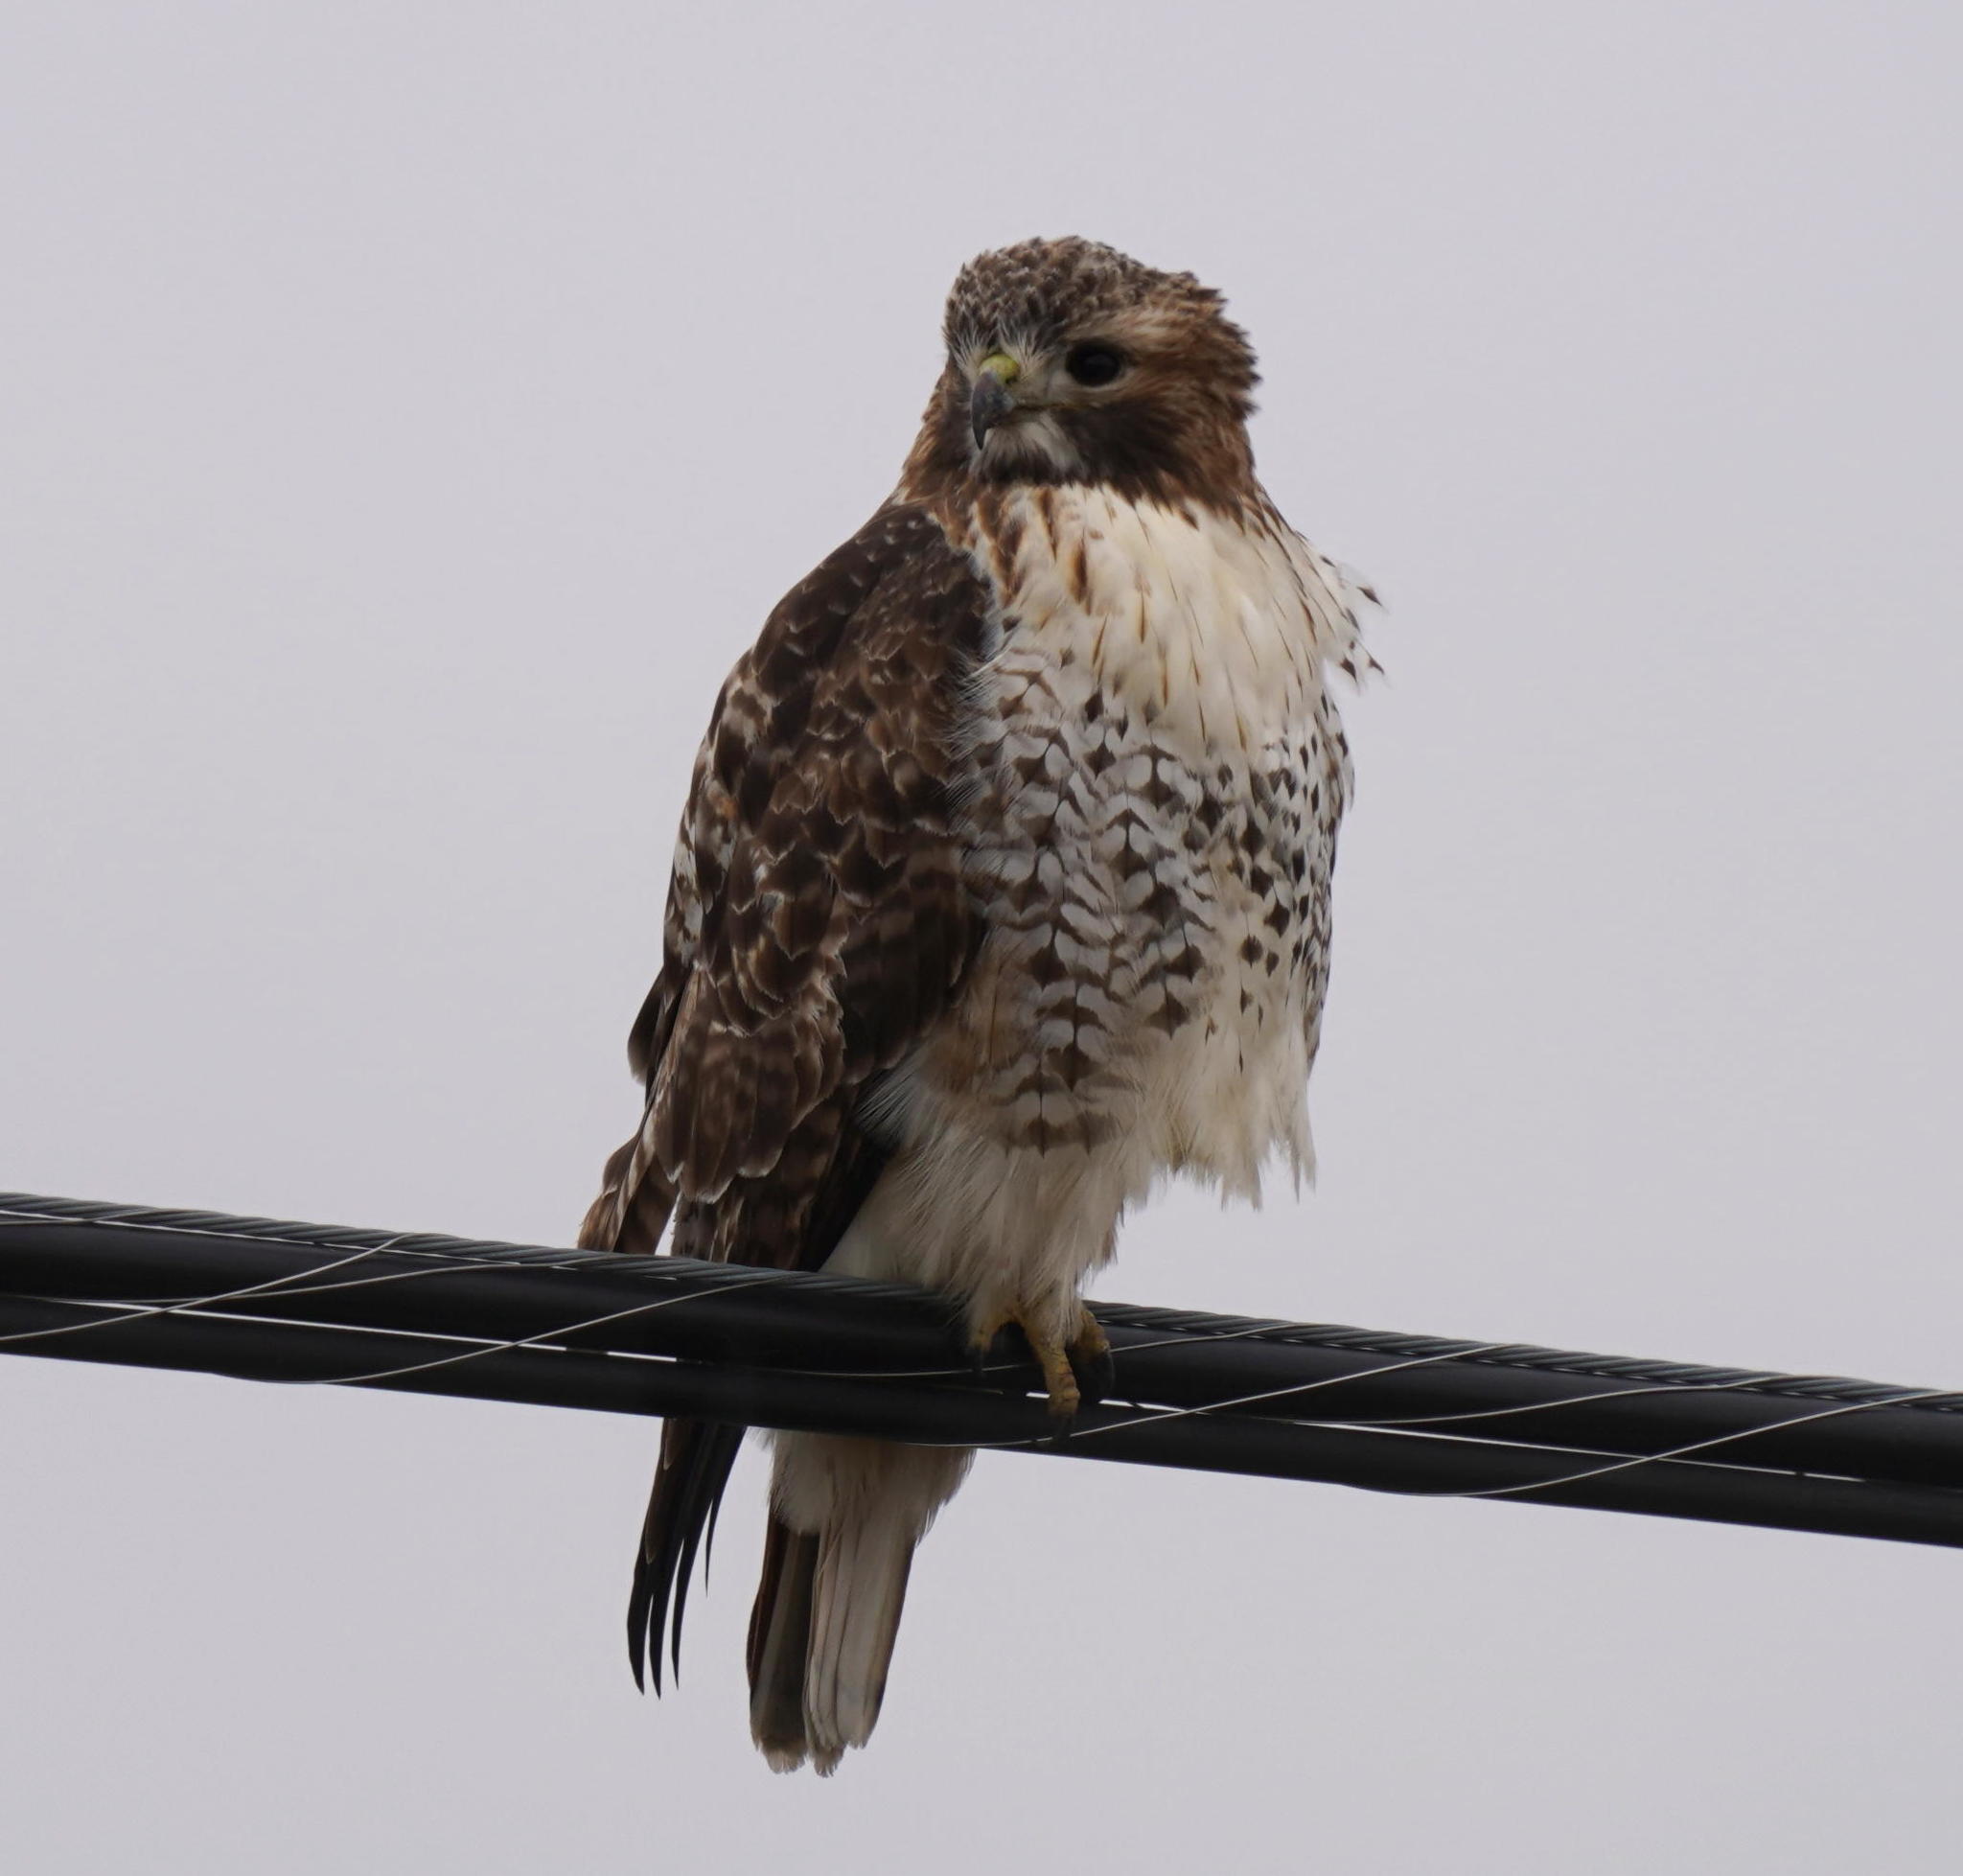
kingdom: Animalia
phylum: Chordata
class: Aves
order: Accipitriformes
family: Accipitridae
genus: Buteo
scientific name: Buteo jamaicensis
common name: Red-tailed hawk
